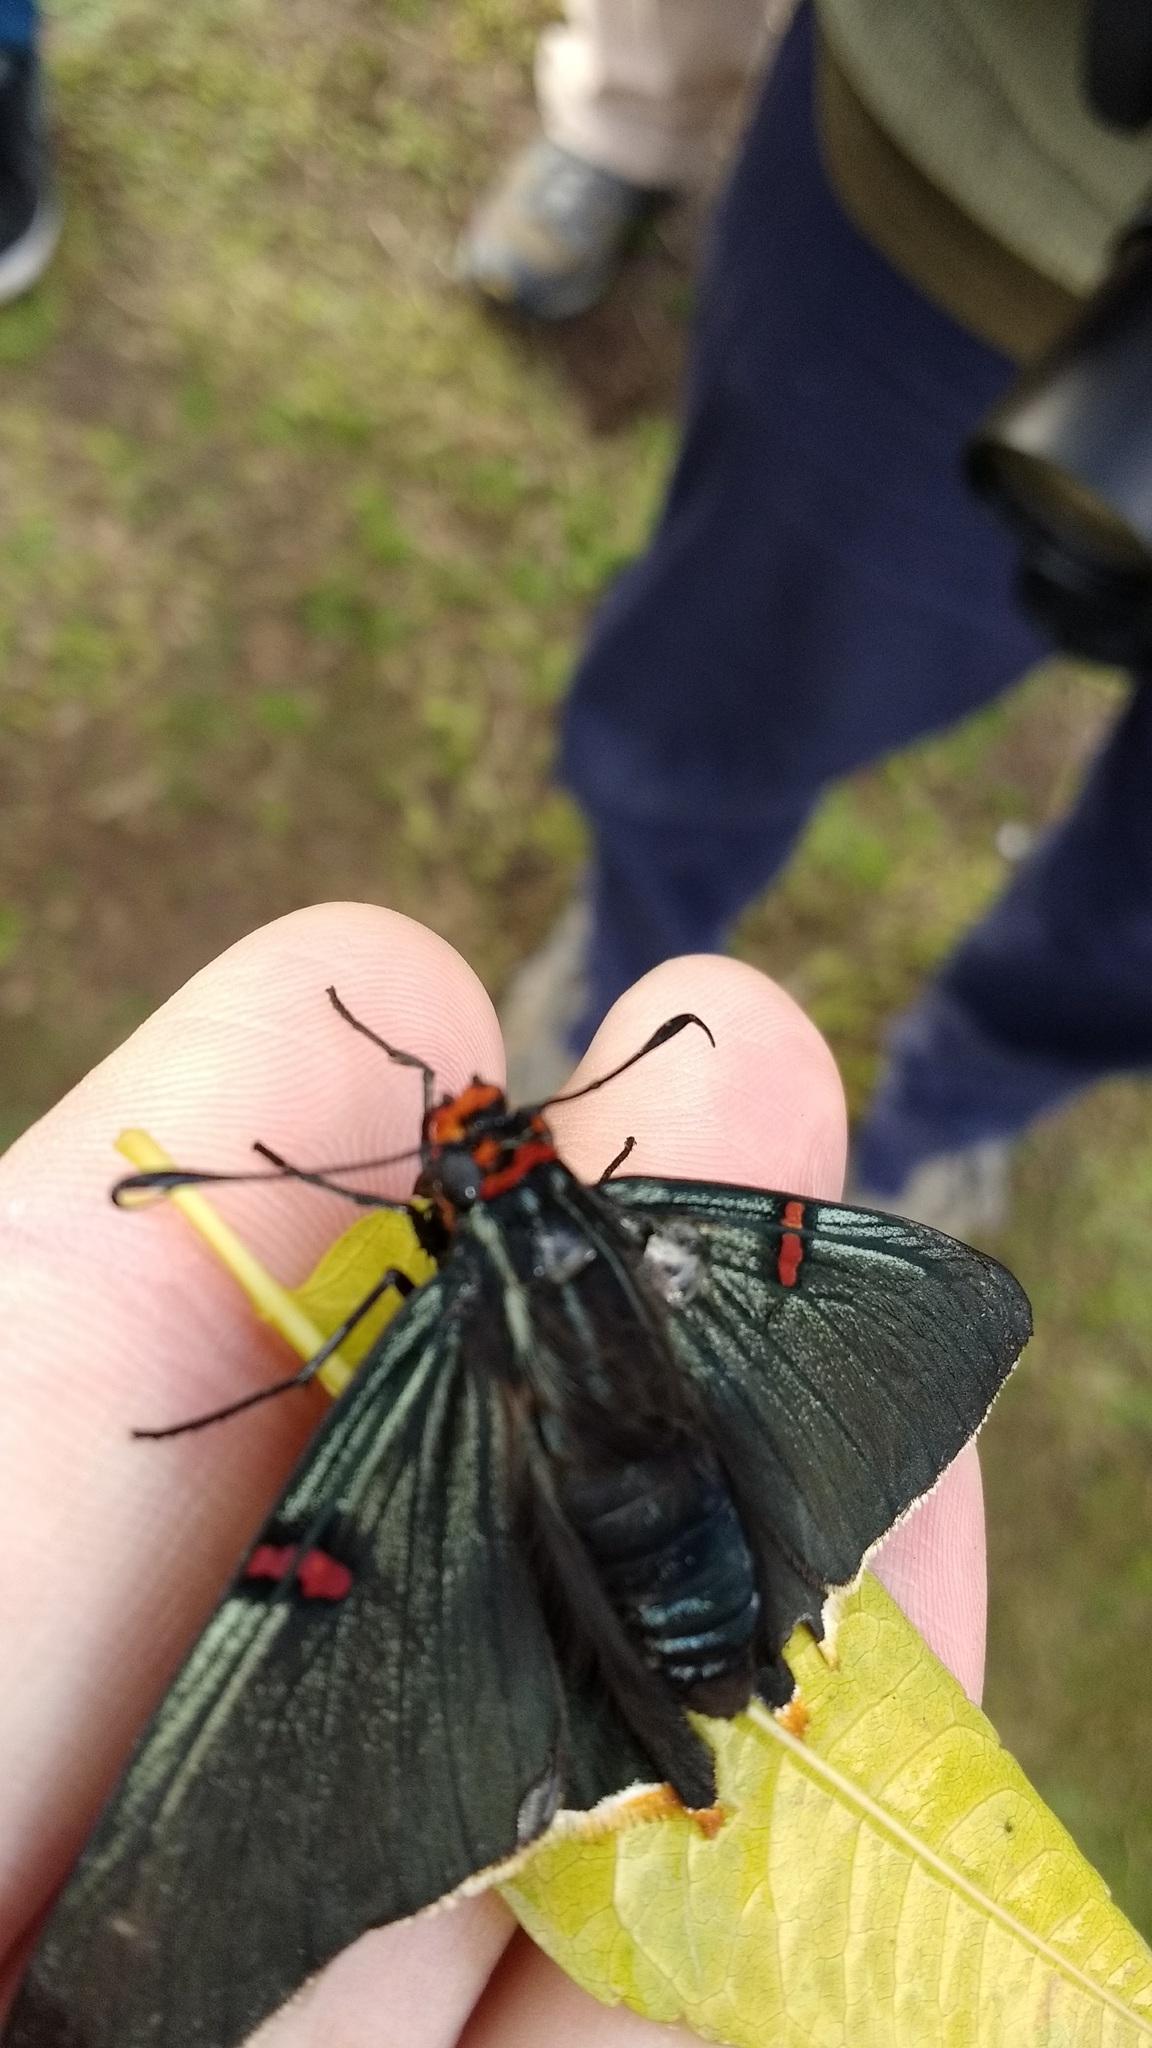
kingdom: Animalia
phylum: Arthropoda
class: Insecta
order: Lepidoptera
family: Hesperiidae
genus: Phocides
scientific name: Phocides polybius
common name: Guava skipper
